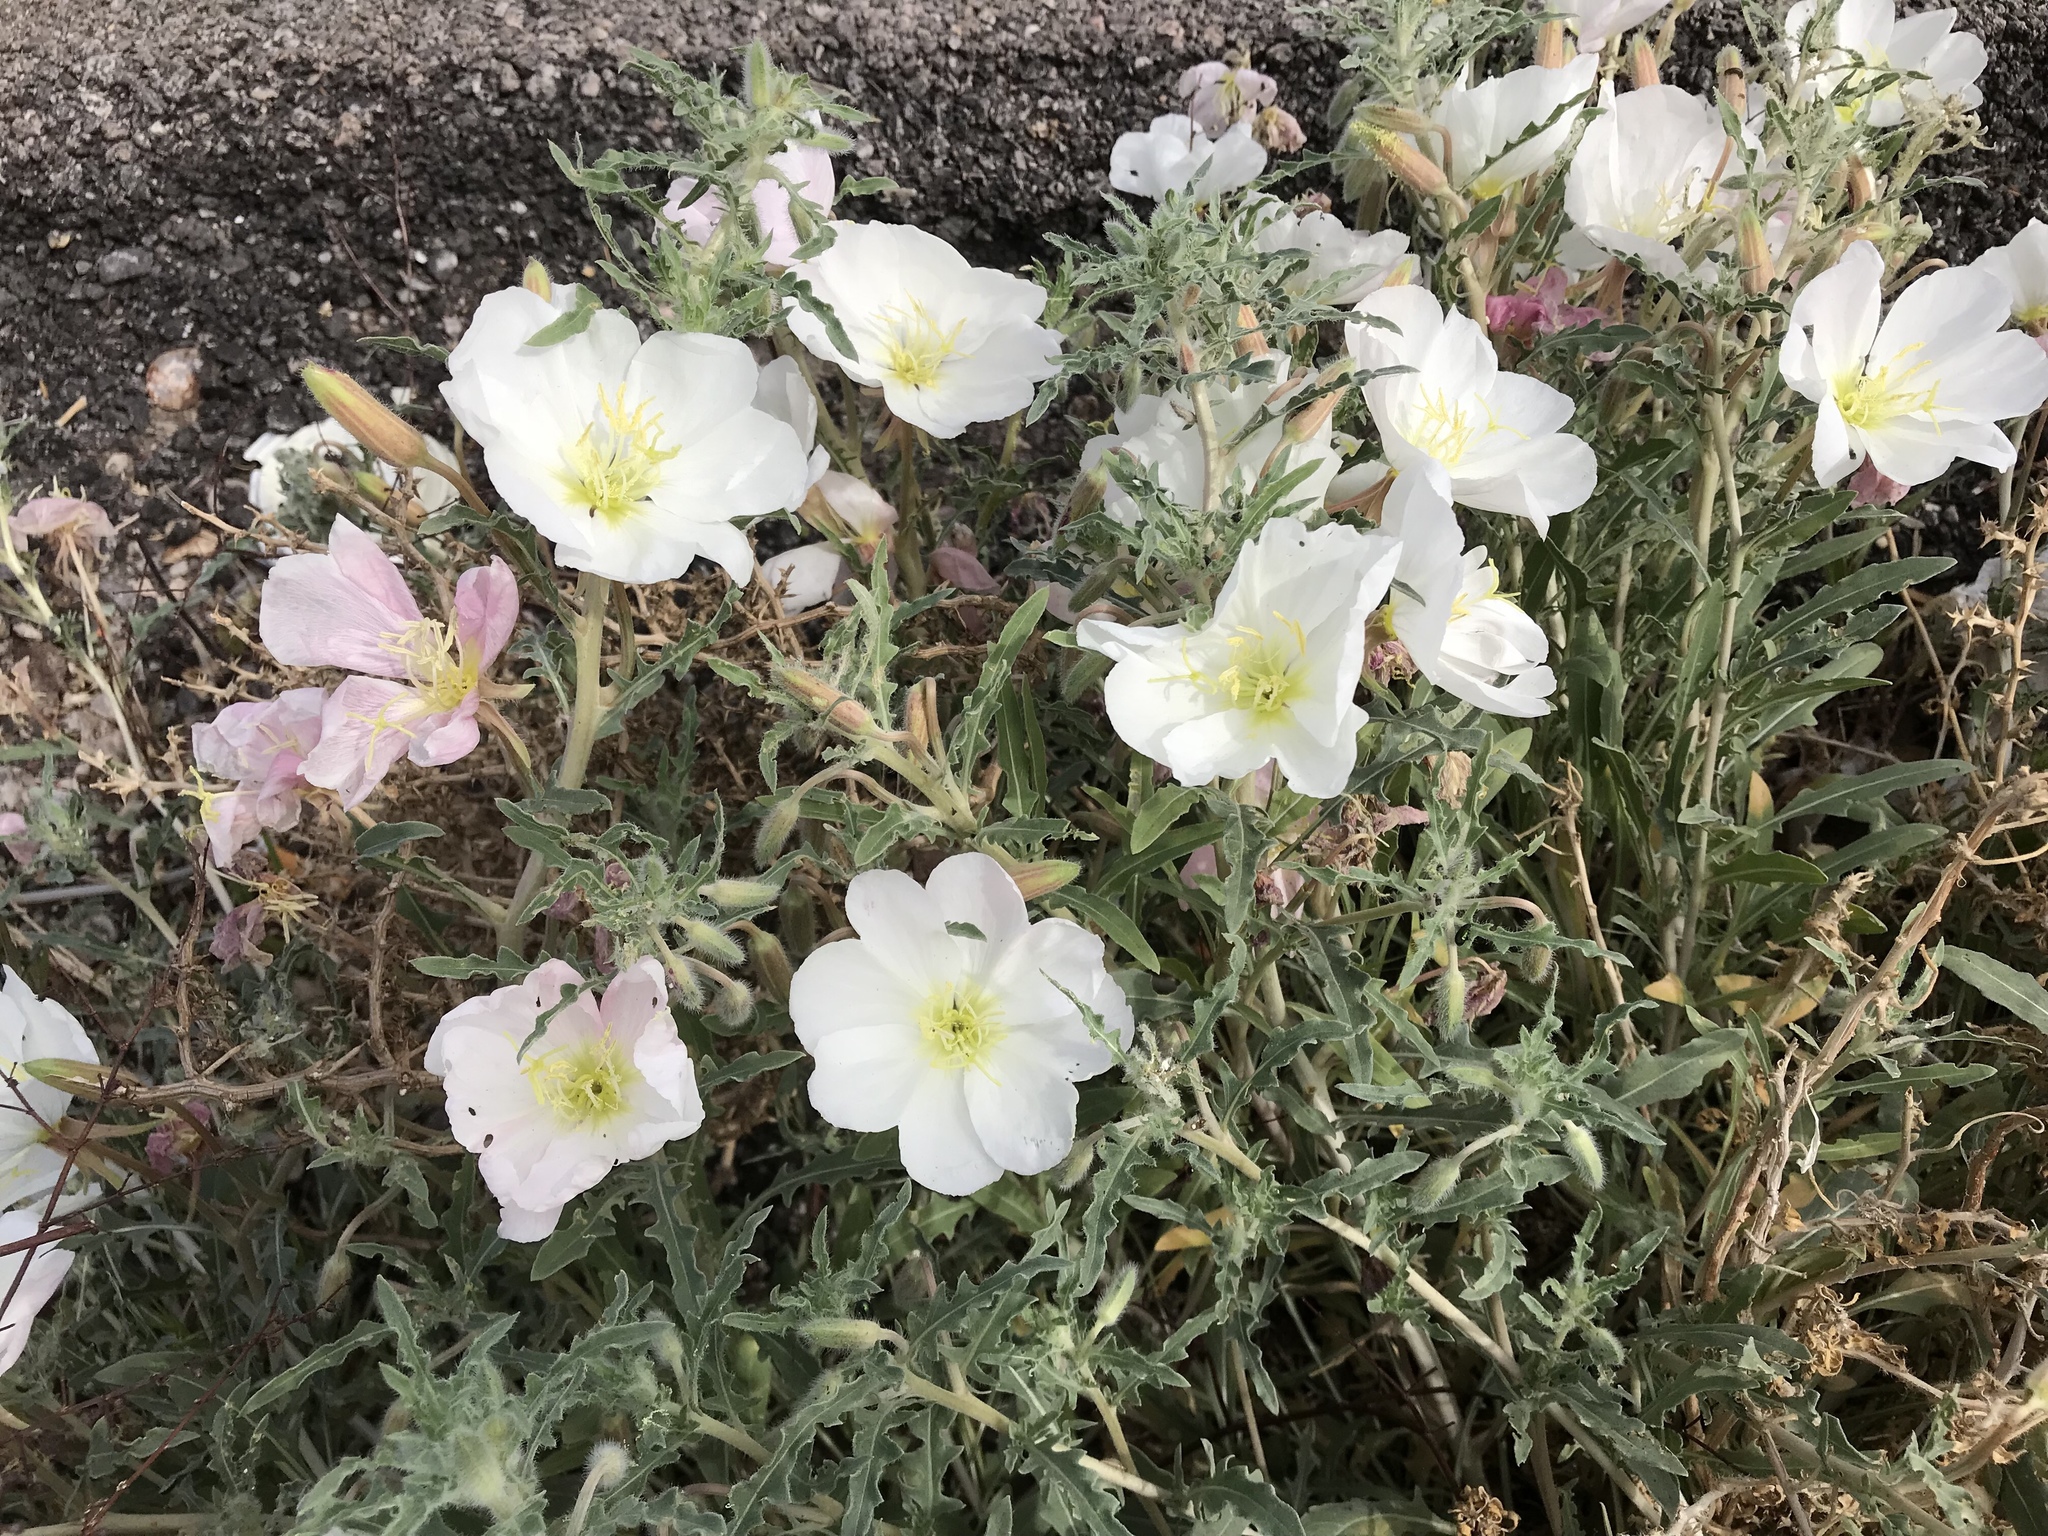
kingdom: Plantae
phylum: Tracheophyta
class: Magnoliopsida
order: Myrtales
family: Onagraceae
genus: Oenothera
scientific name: Oenothera deltoides
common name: Basket evening-primrose
